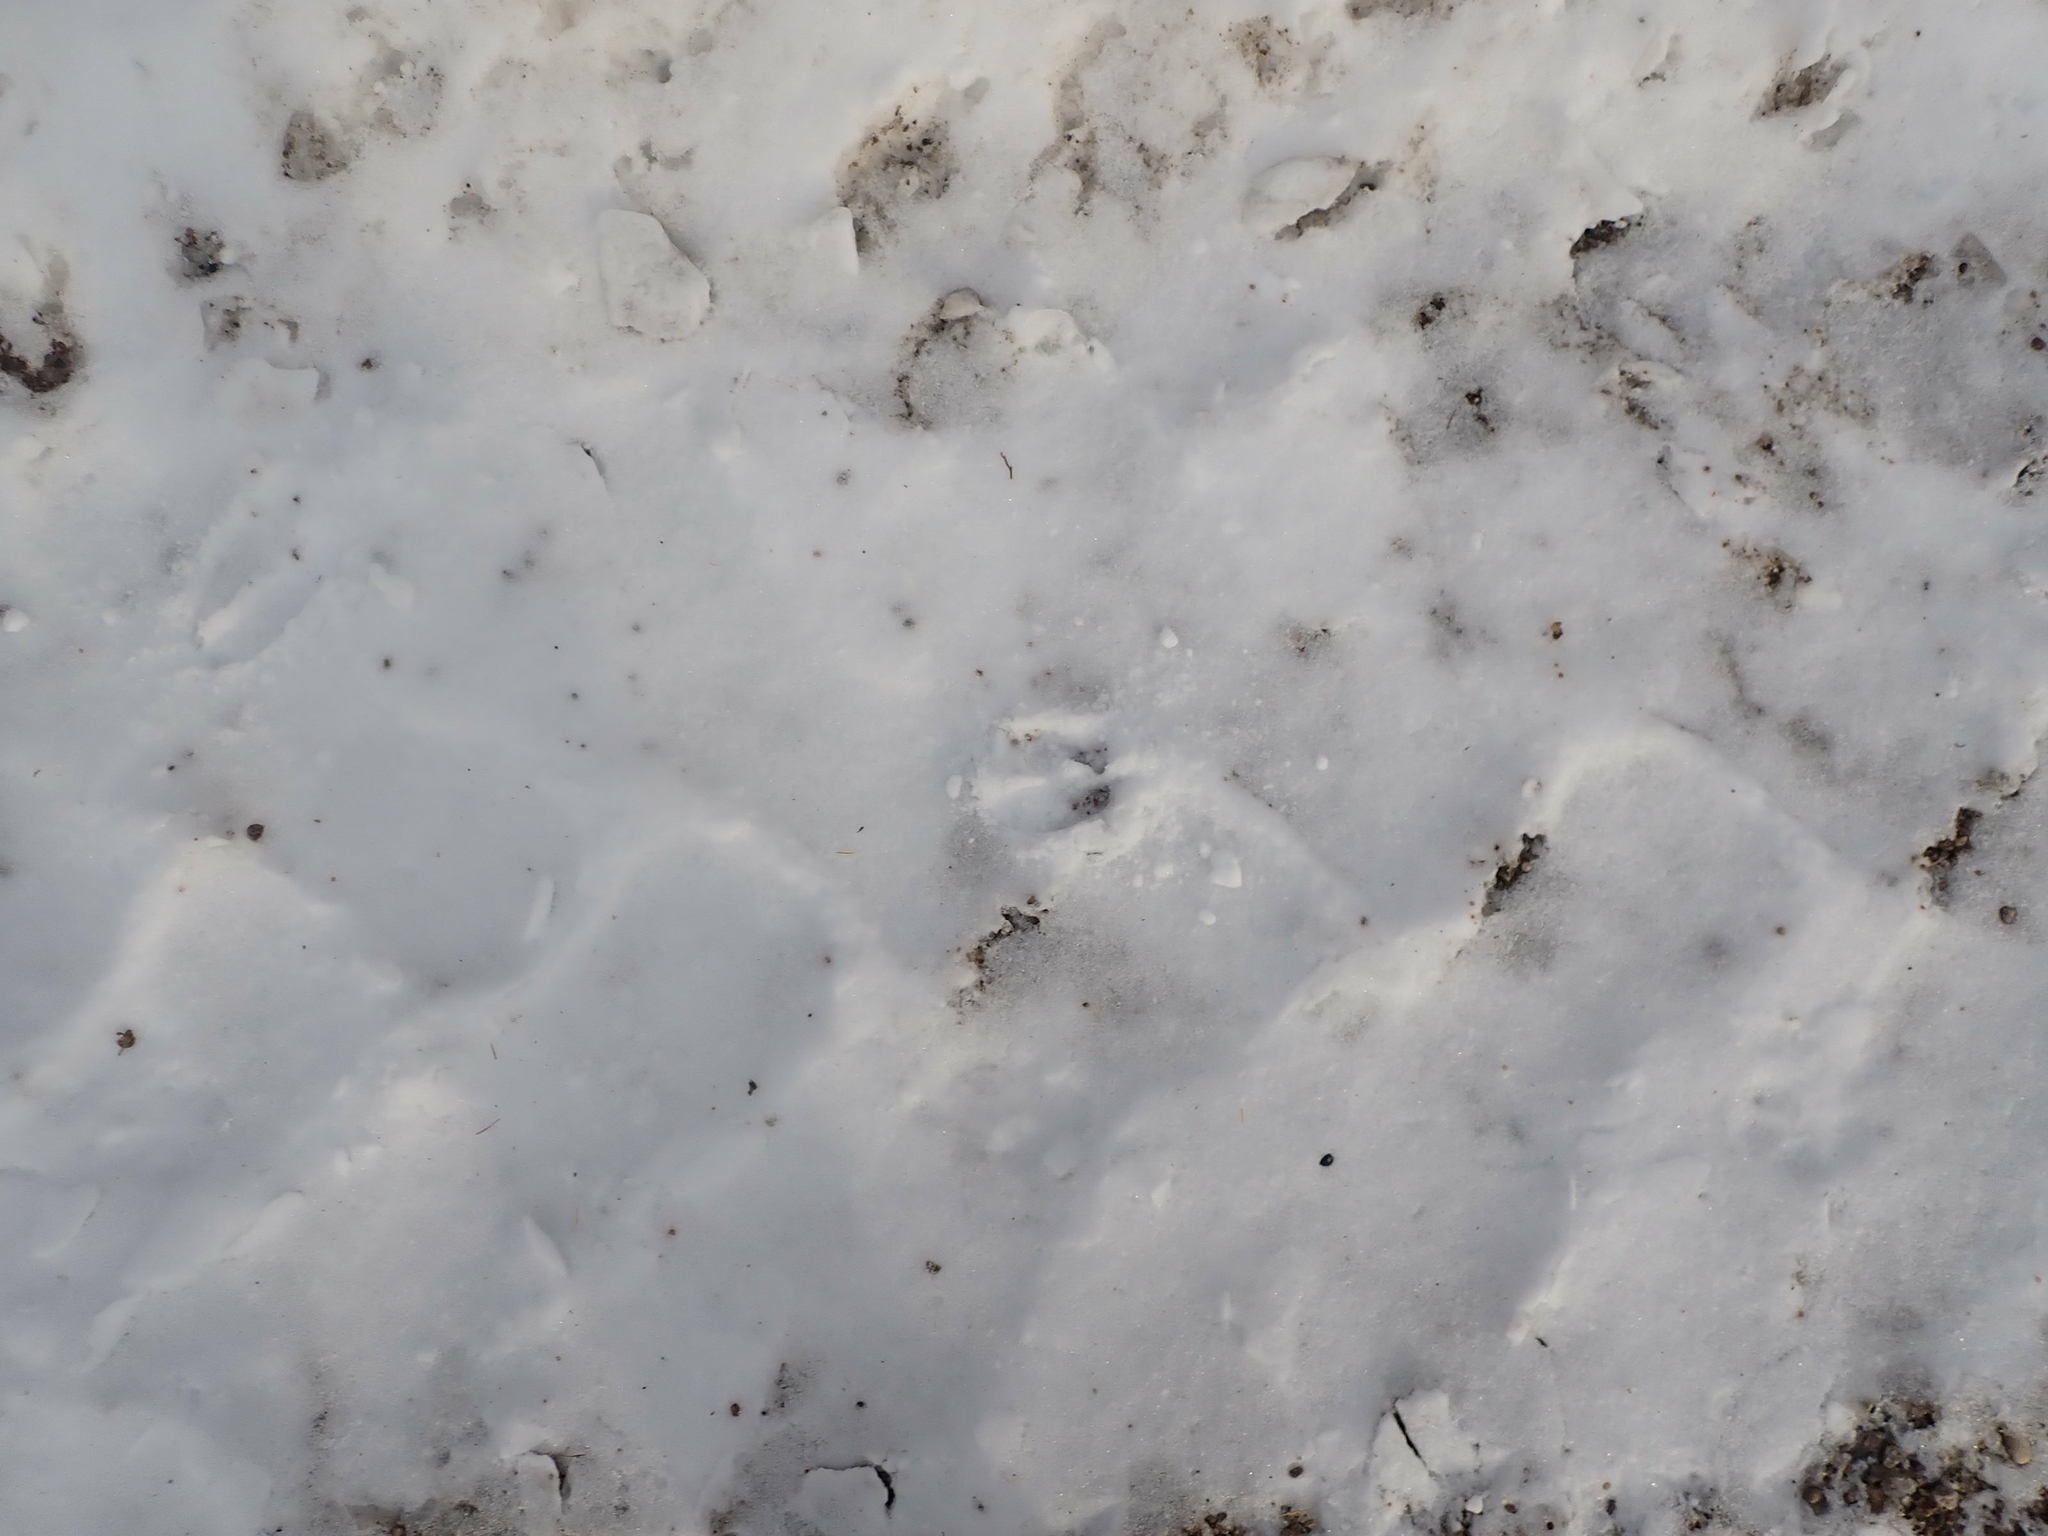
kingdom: Animalia
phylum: Chordata
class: Mammalia
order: Artiodactyla
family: Cervidae
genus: Odocoileus
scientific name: Odocoileus virginianus
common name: White-tailed deer
